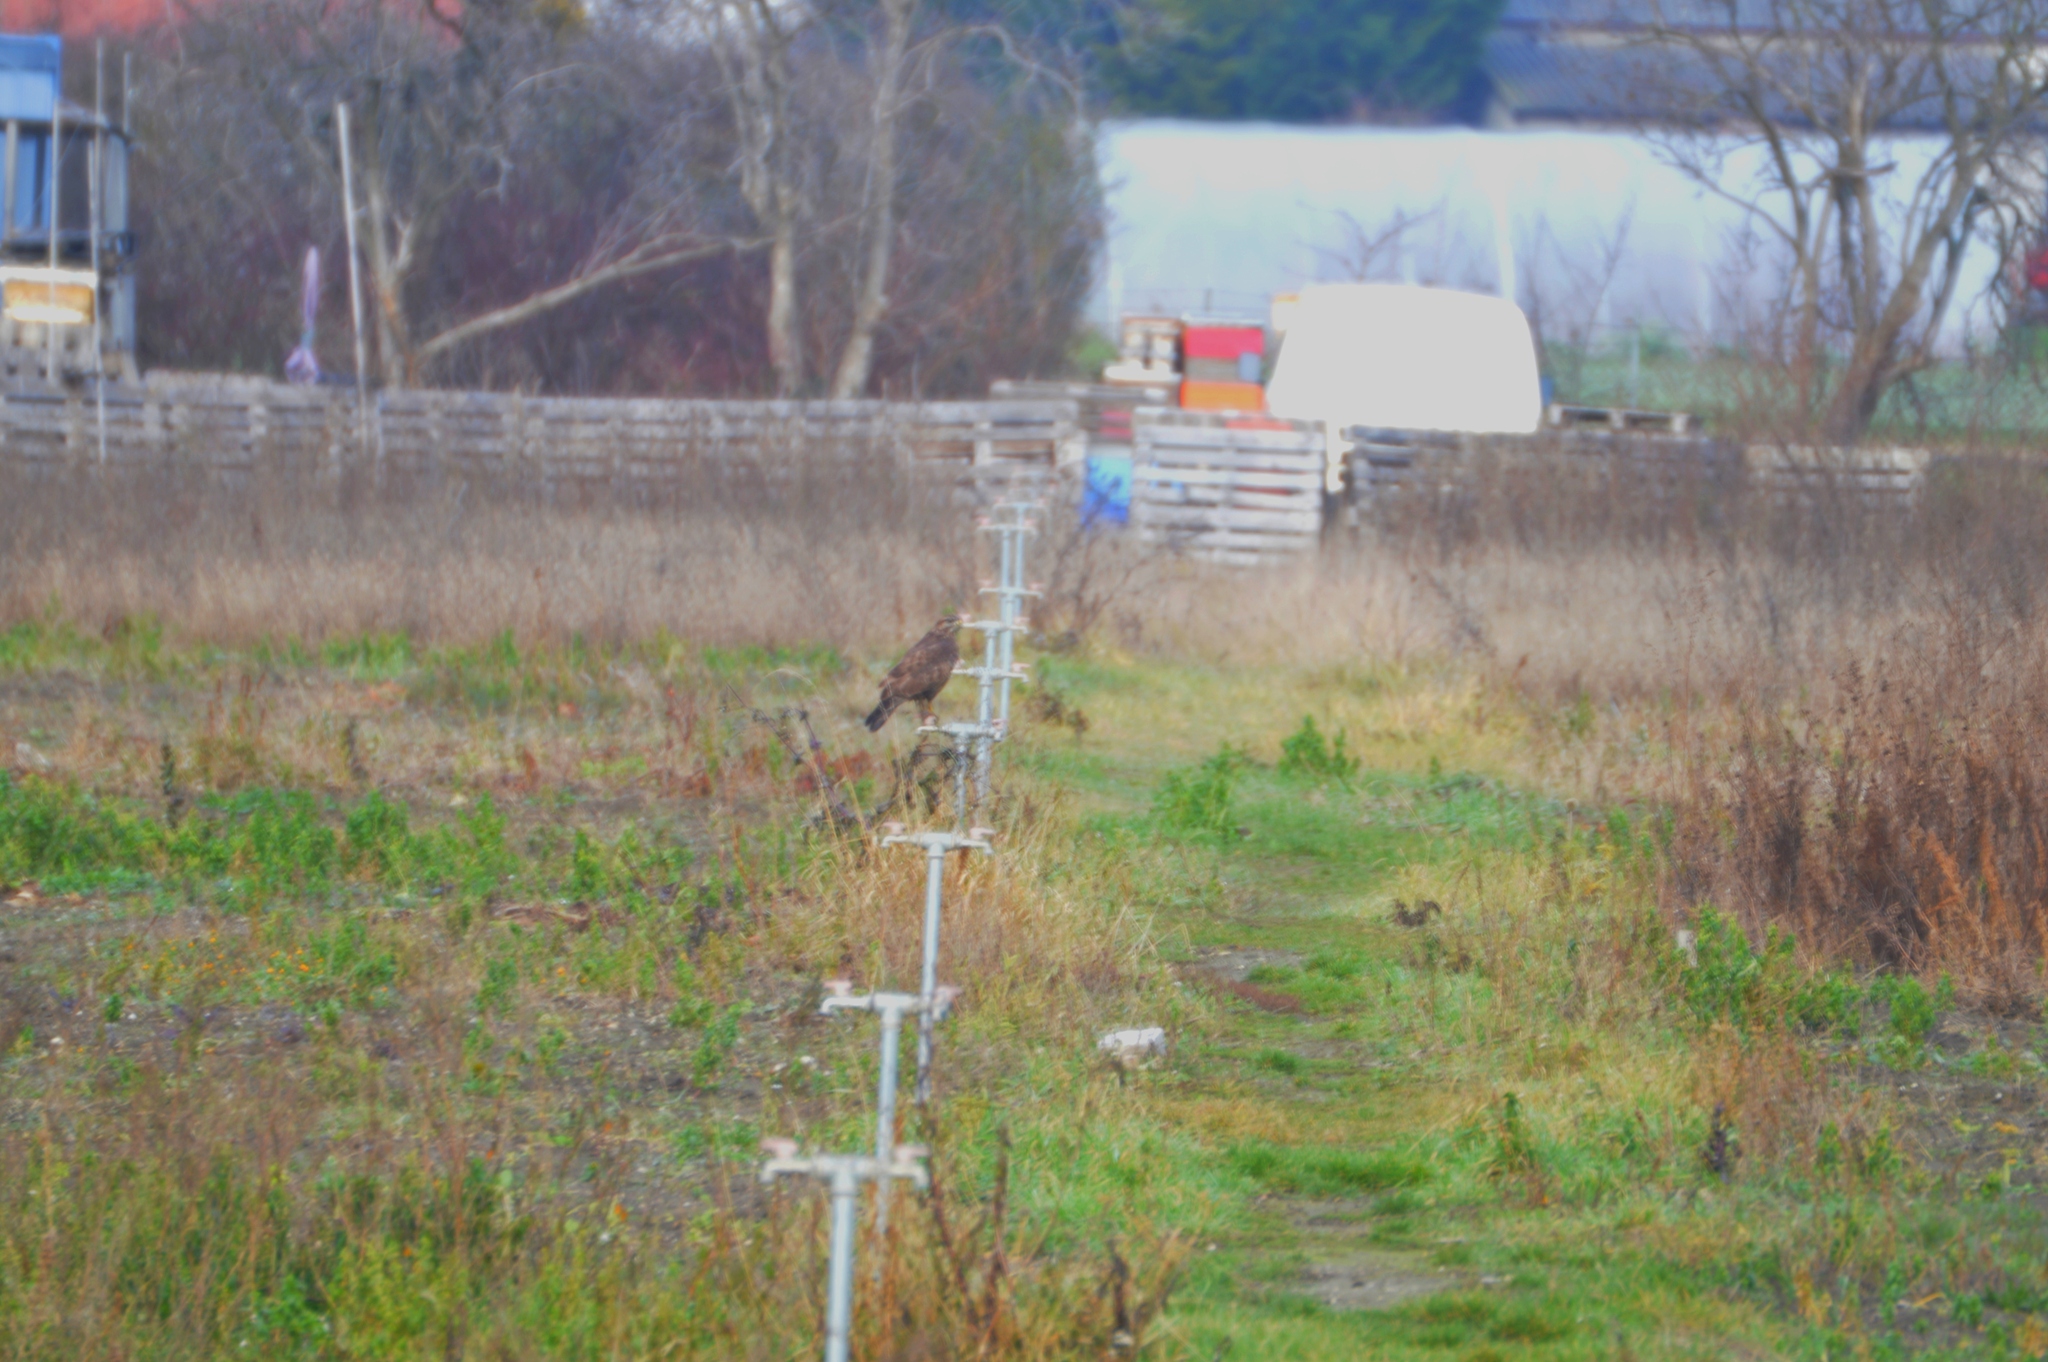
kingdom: Animalia
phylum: Chordata
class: Aves
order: Accipitriformes
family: Accipitridae
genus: Buteo
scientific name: Buteo buteo
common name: Common buzzard
